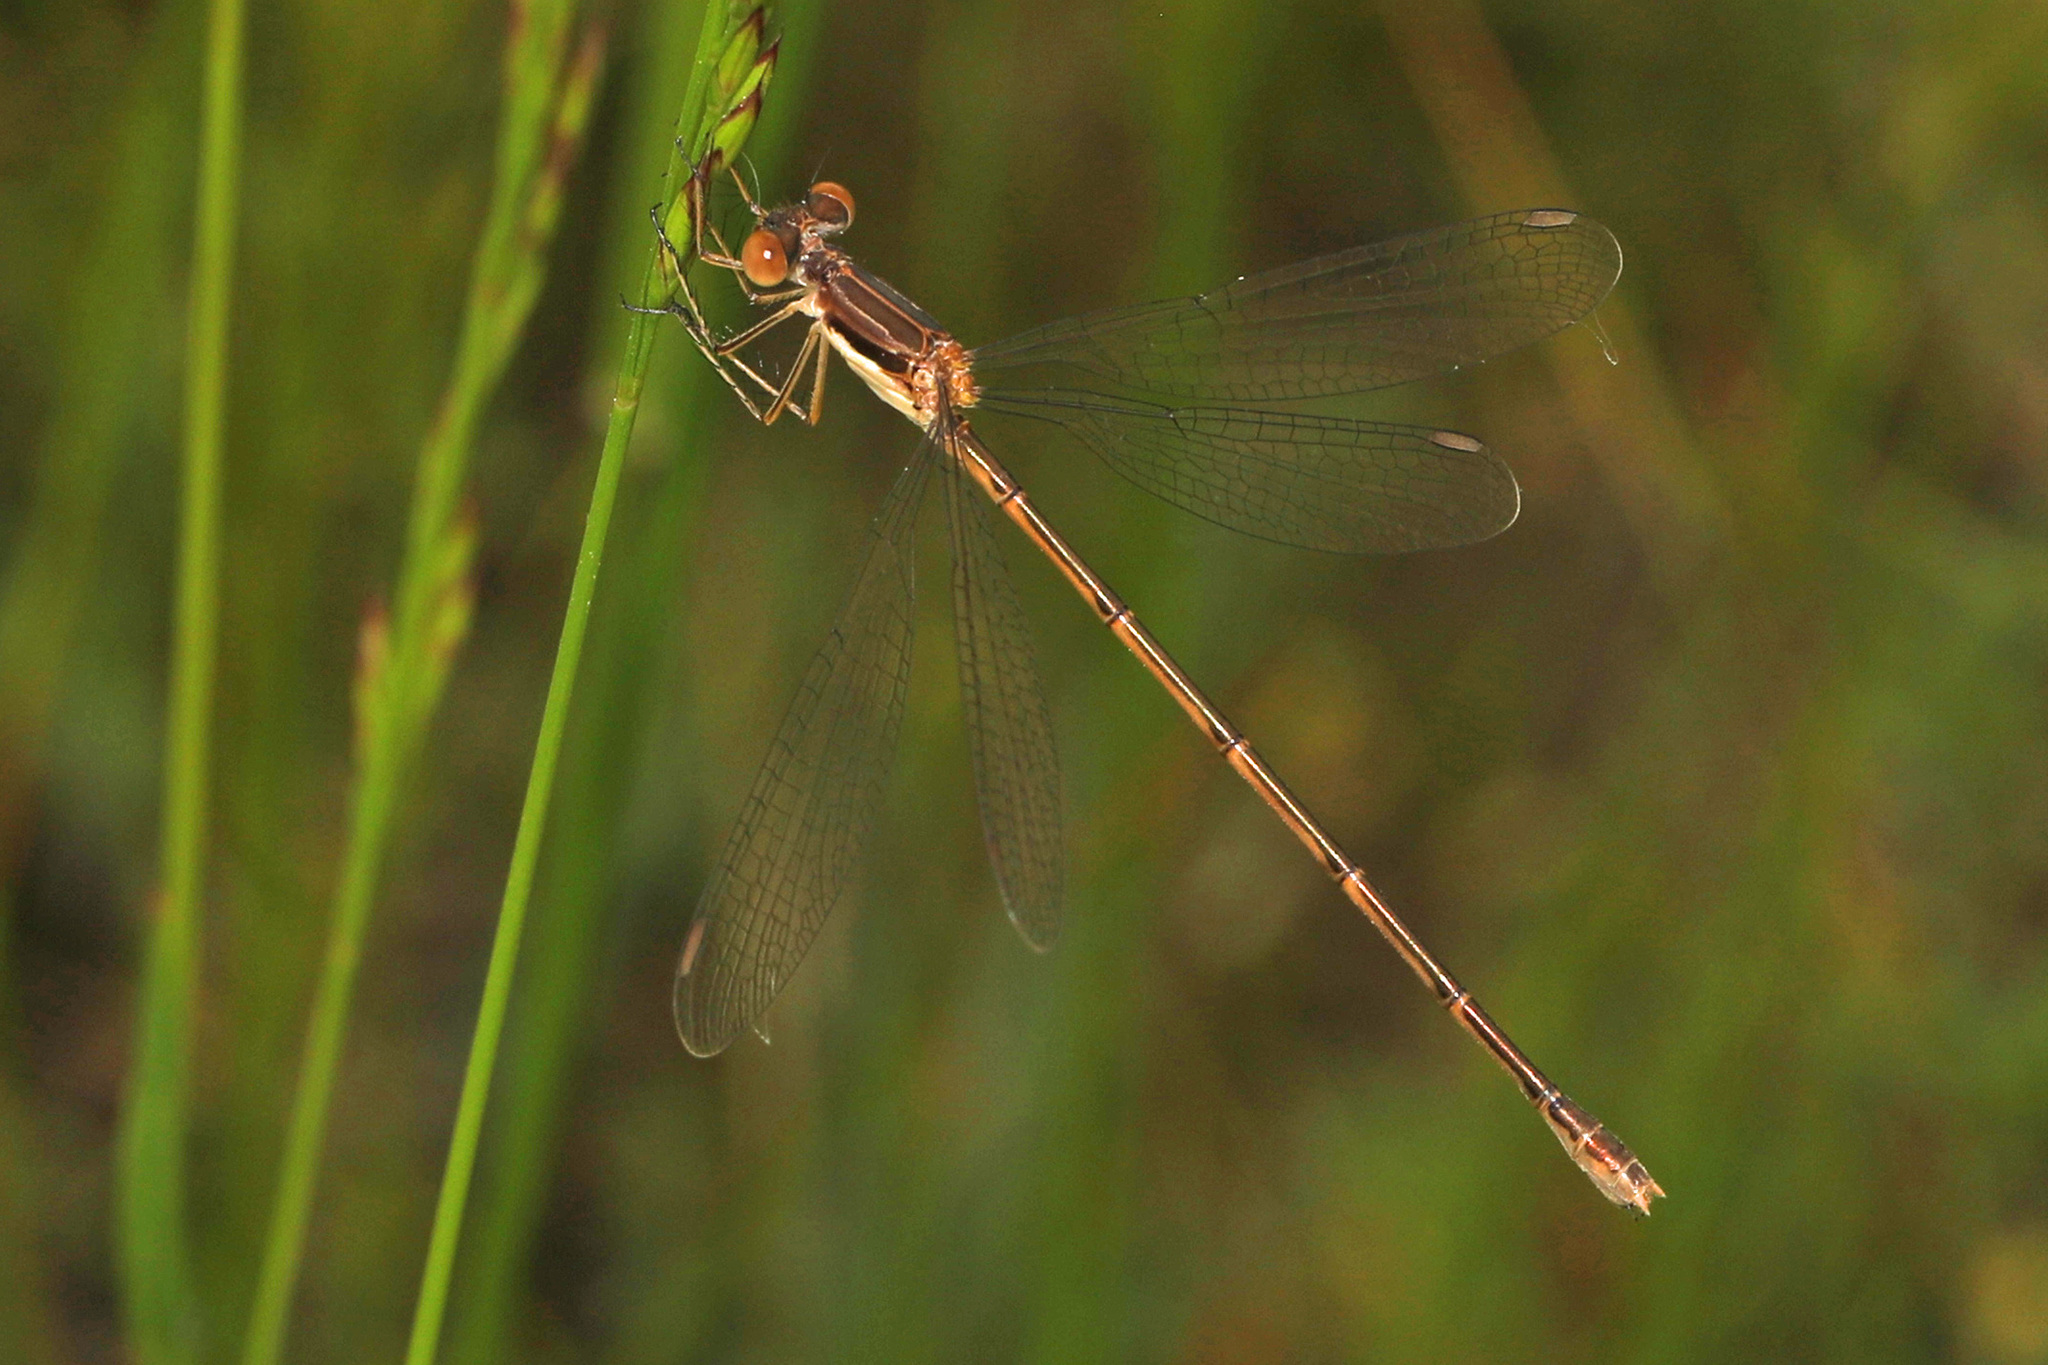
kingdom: Animalia
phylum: Arthropoda
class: Insecta
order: Odonata
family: Lestidae
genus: Lestes
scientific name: Lestes rectangularis
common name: Slender spreadwing
